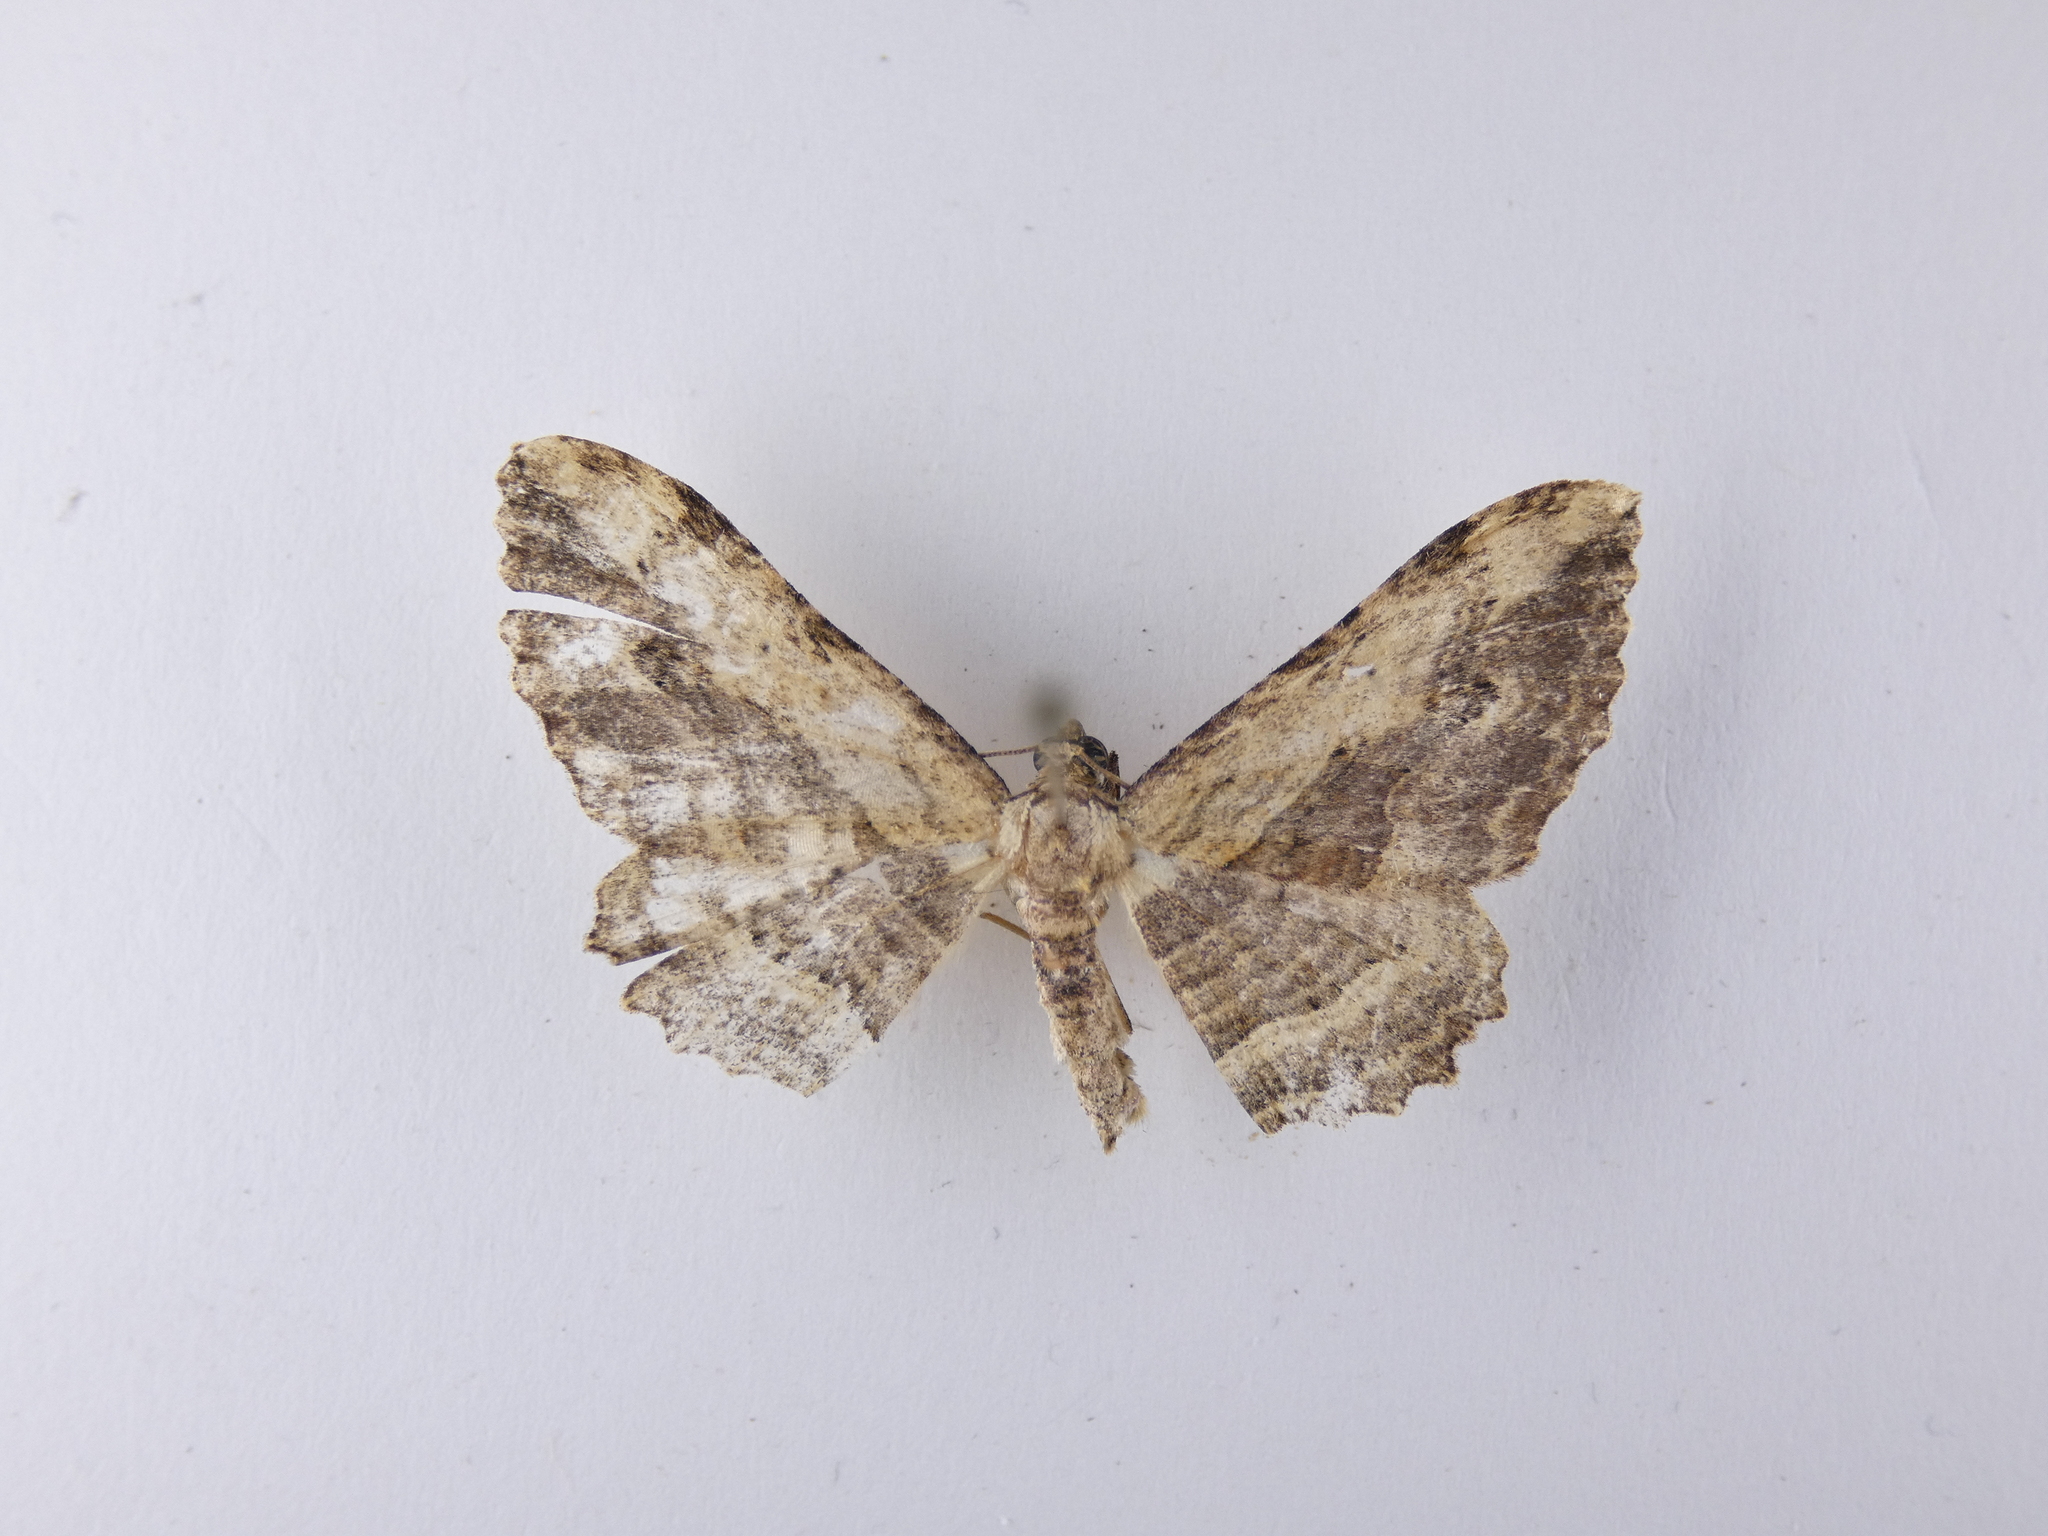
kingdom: Animalia
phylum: Arthropoda
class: Insecta
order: Lepidoptera
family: Geometridae
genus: Austrocidaria
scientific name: Austrocidaria bipartita
